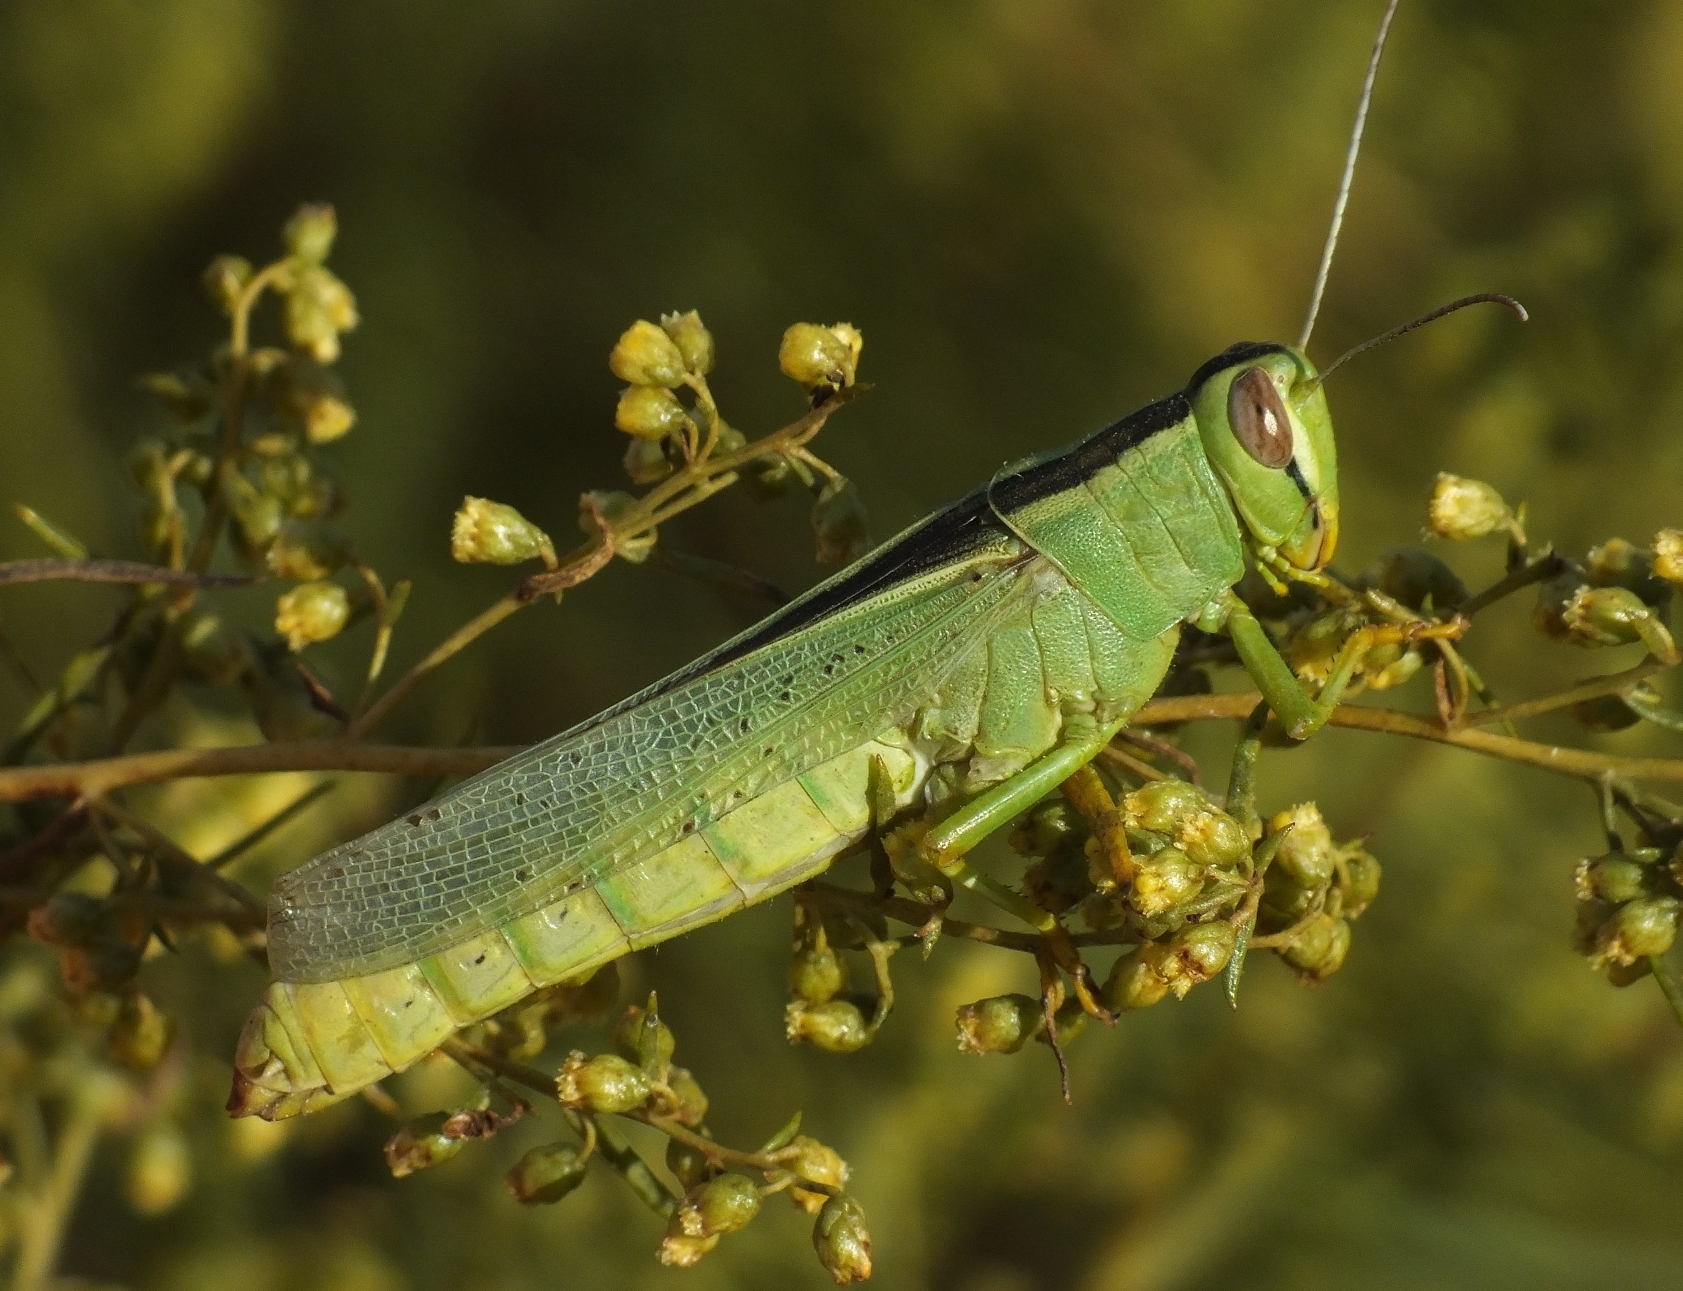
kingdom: Animalia
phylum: Arthropoda
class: Insecta
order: Orthoptera
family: Acrididae
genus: Heteracris
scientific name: Heteracris pterosticha
